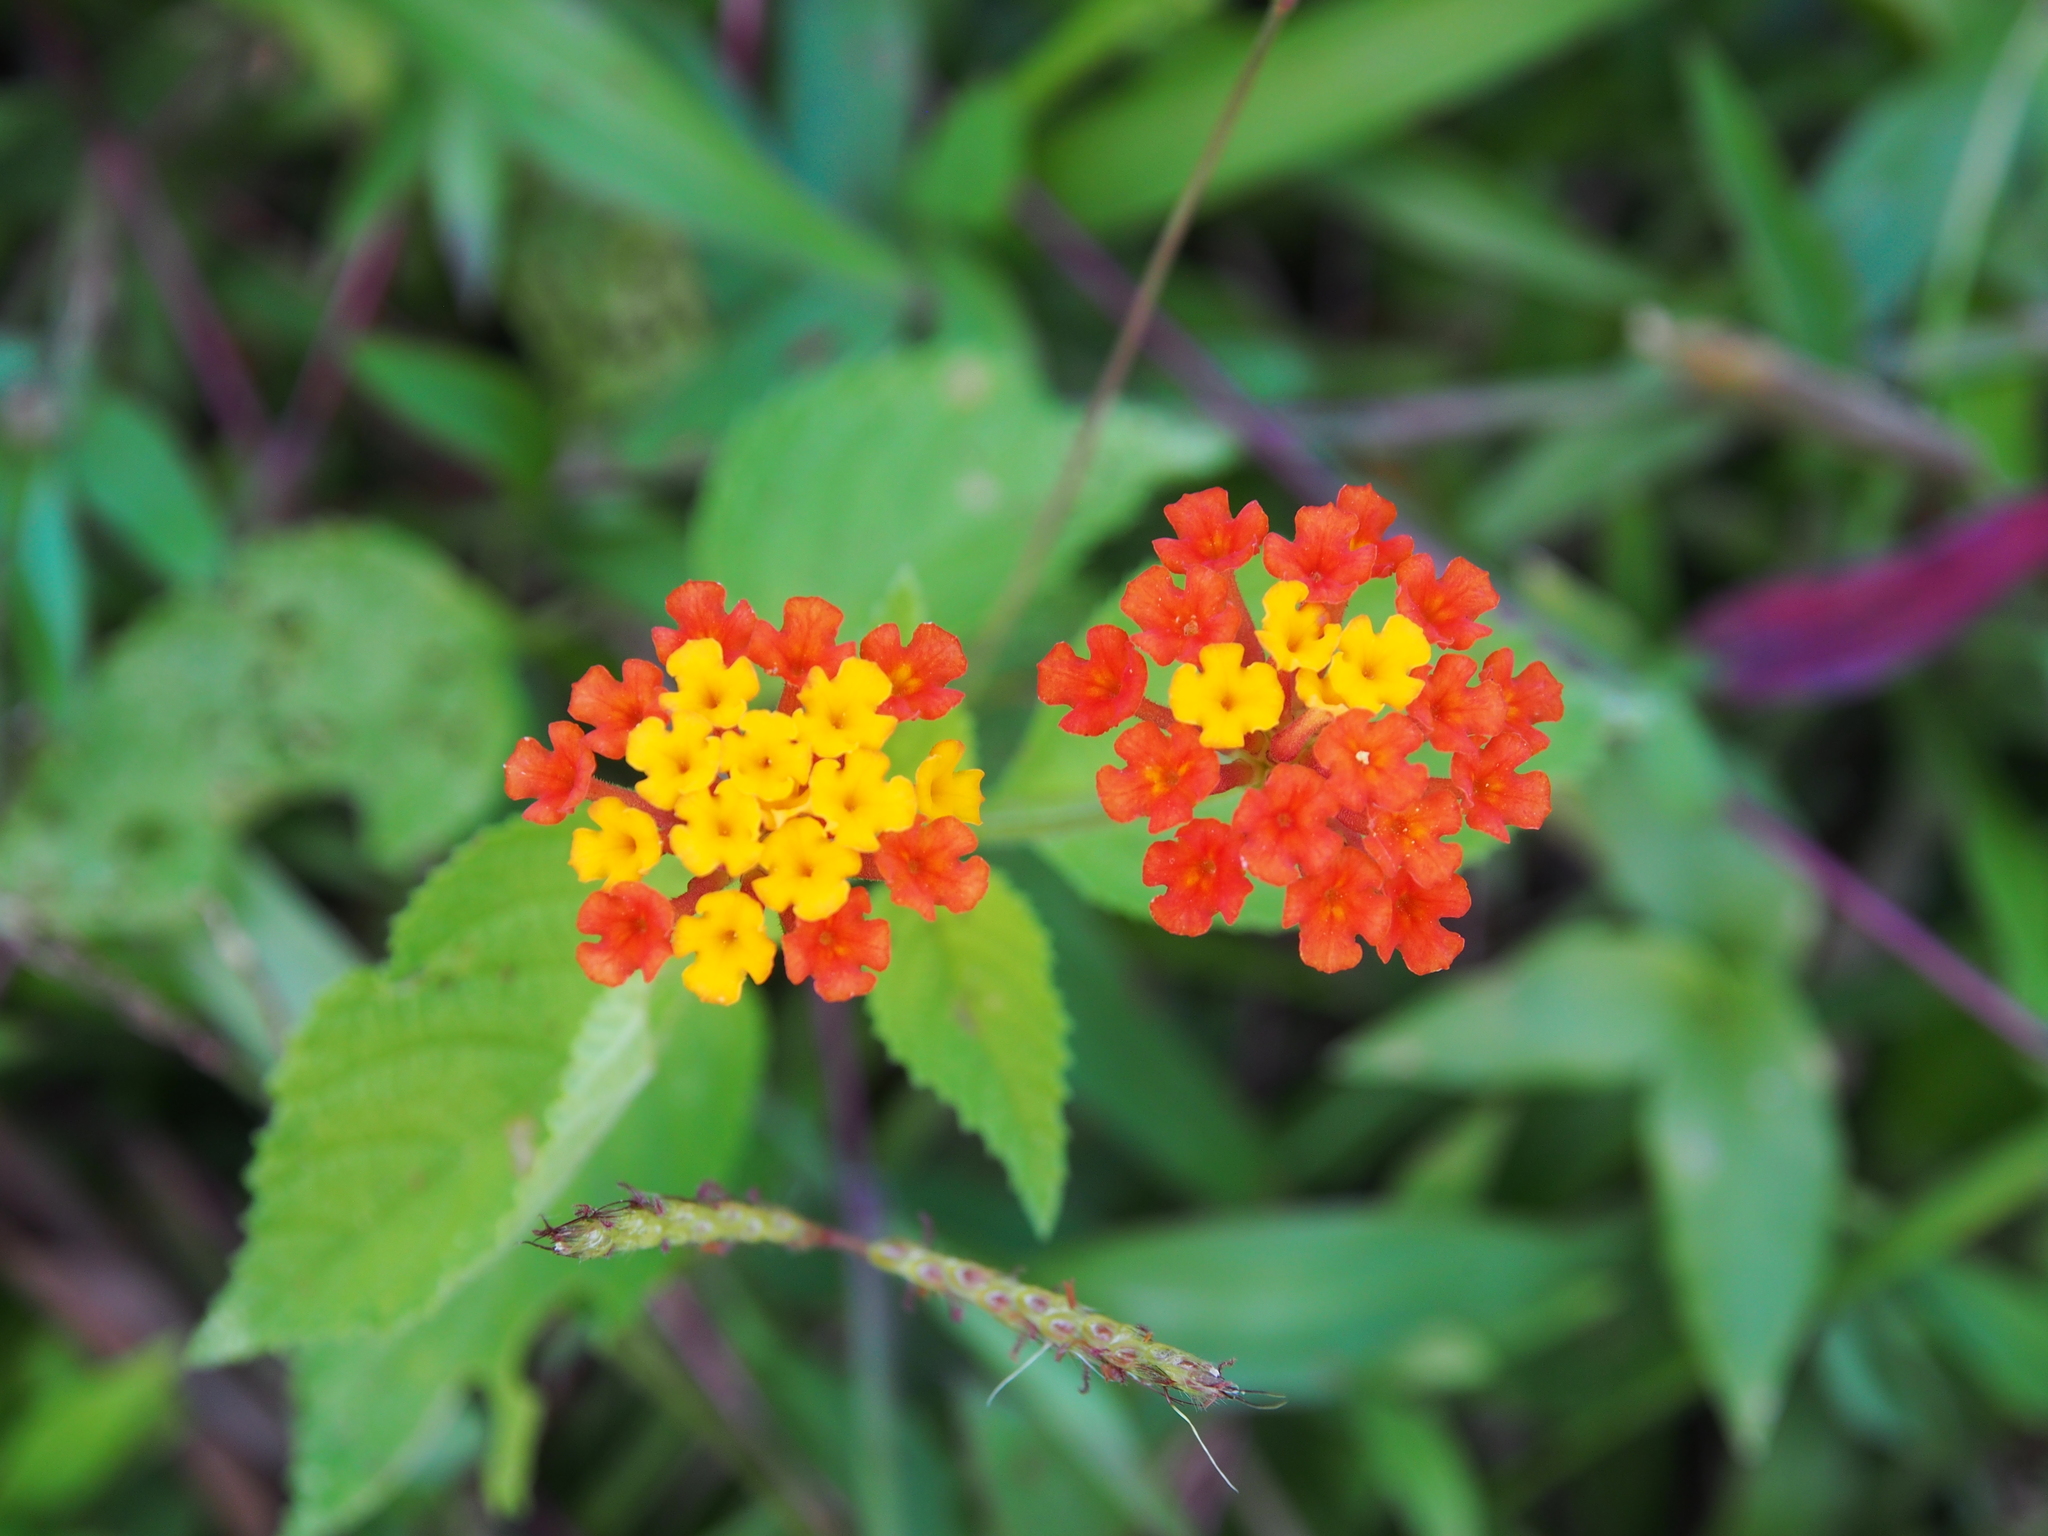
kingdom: Plantae
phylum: Tracheophyta
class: Magnoliopsida
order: Lamiales
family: Verbenaceae
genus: Lantana
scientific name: Lantana camara
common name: Lantana
